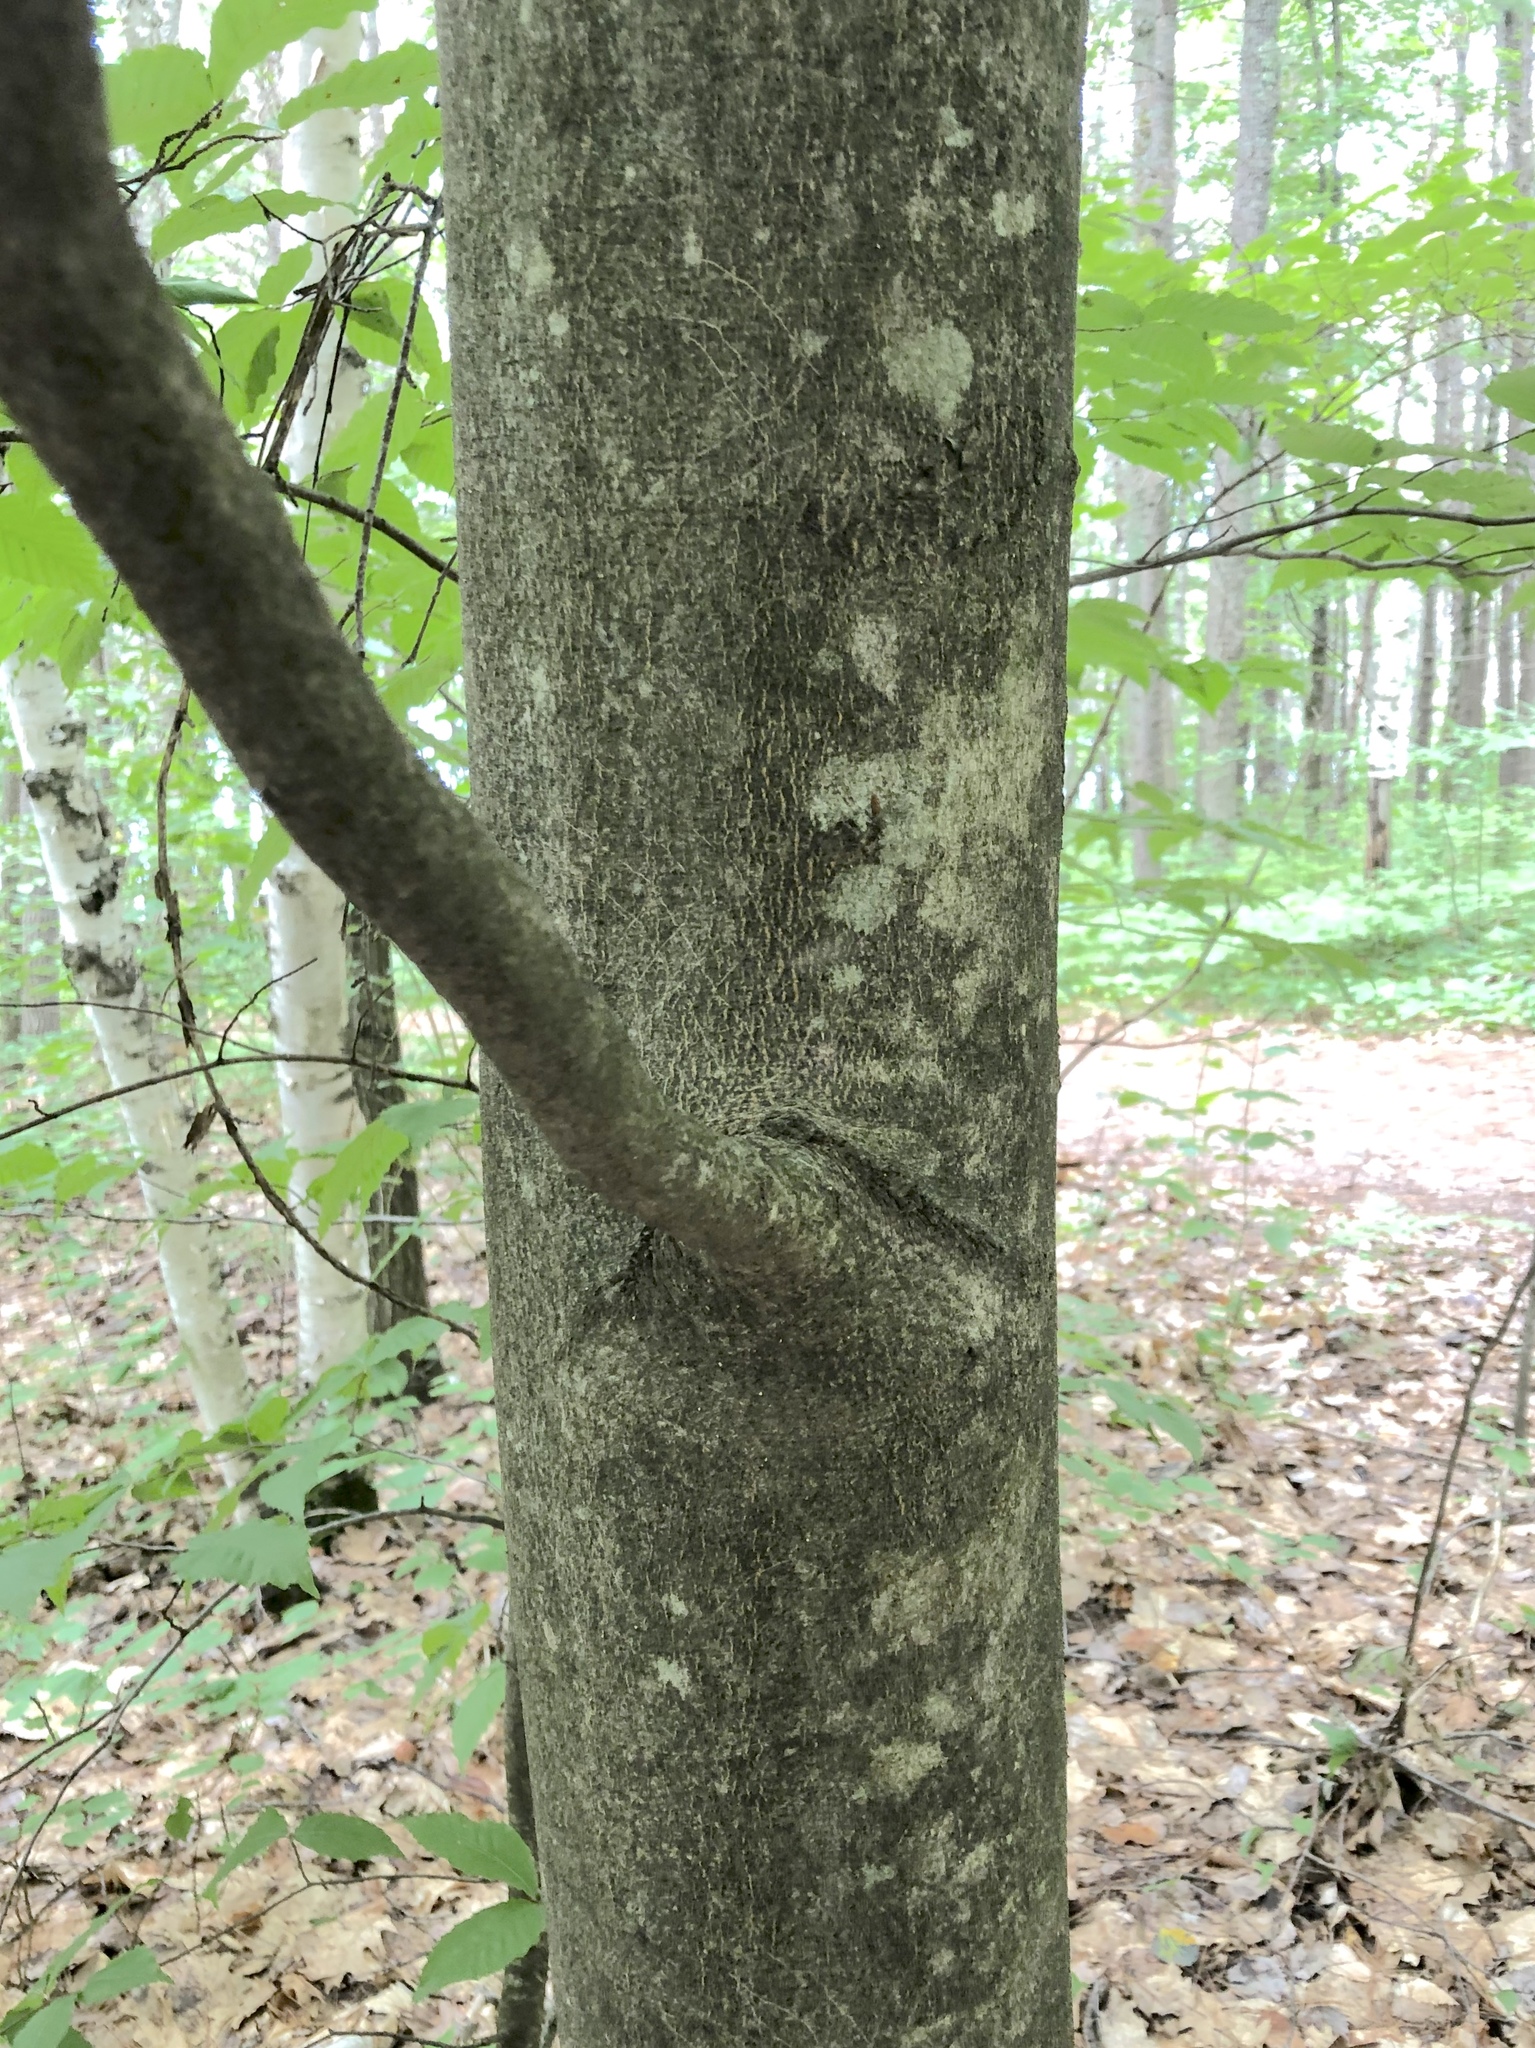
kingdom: Plantae
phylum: Tracheophyta
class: Magnoliopsida
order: Fagales
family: Fagaceae
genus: Fagus
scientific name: Fagus grandifolia
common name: American beech
